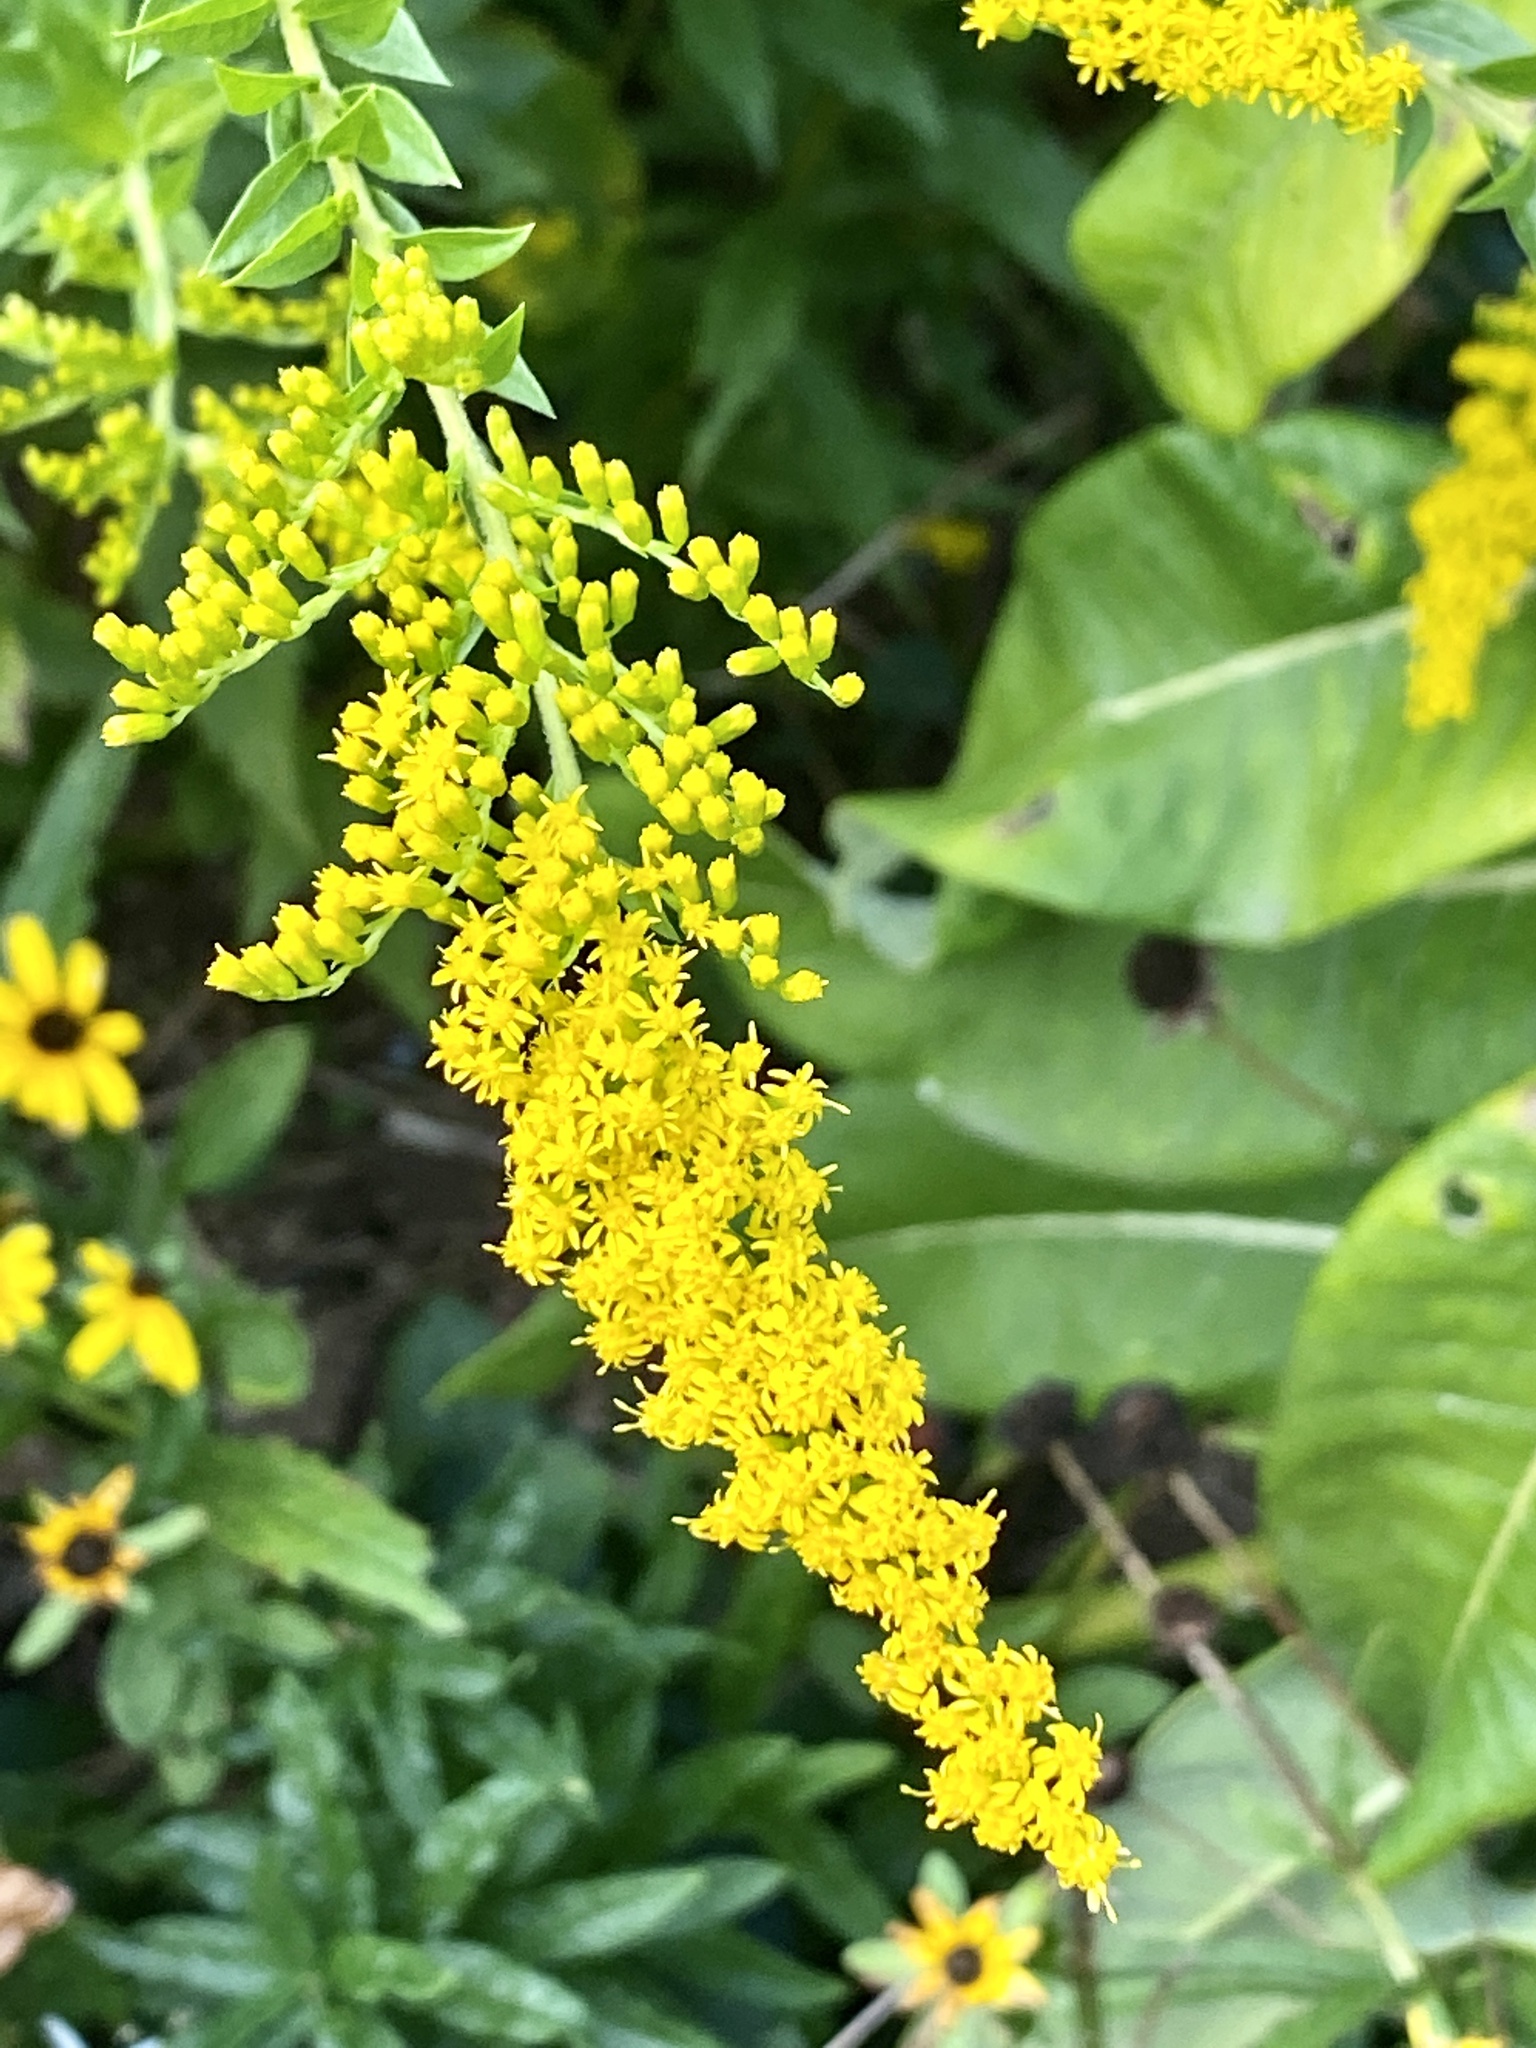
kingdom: Plantae
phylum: Tracheophyta
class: Magnoliopsida
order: Asterales
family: Asteraceae
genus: Solidago
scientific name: Solidago rugosa
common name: Rough-stemmed goldenrod
